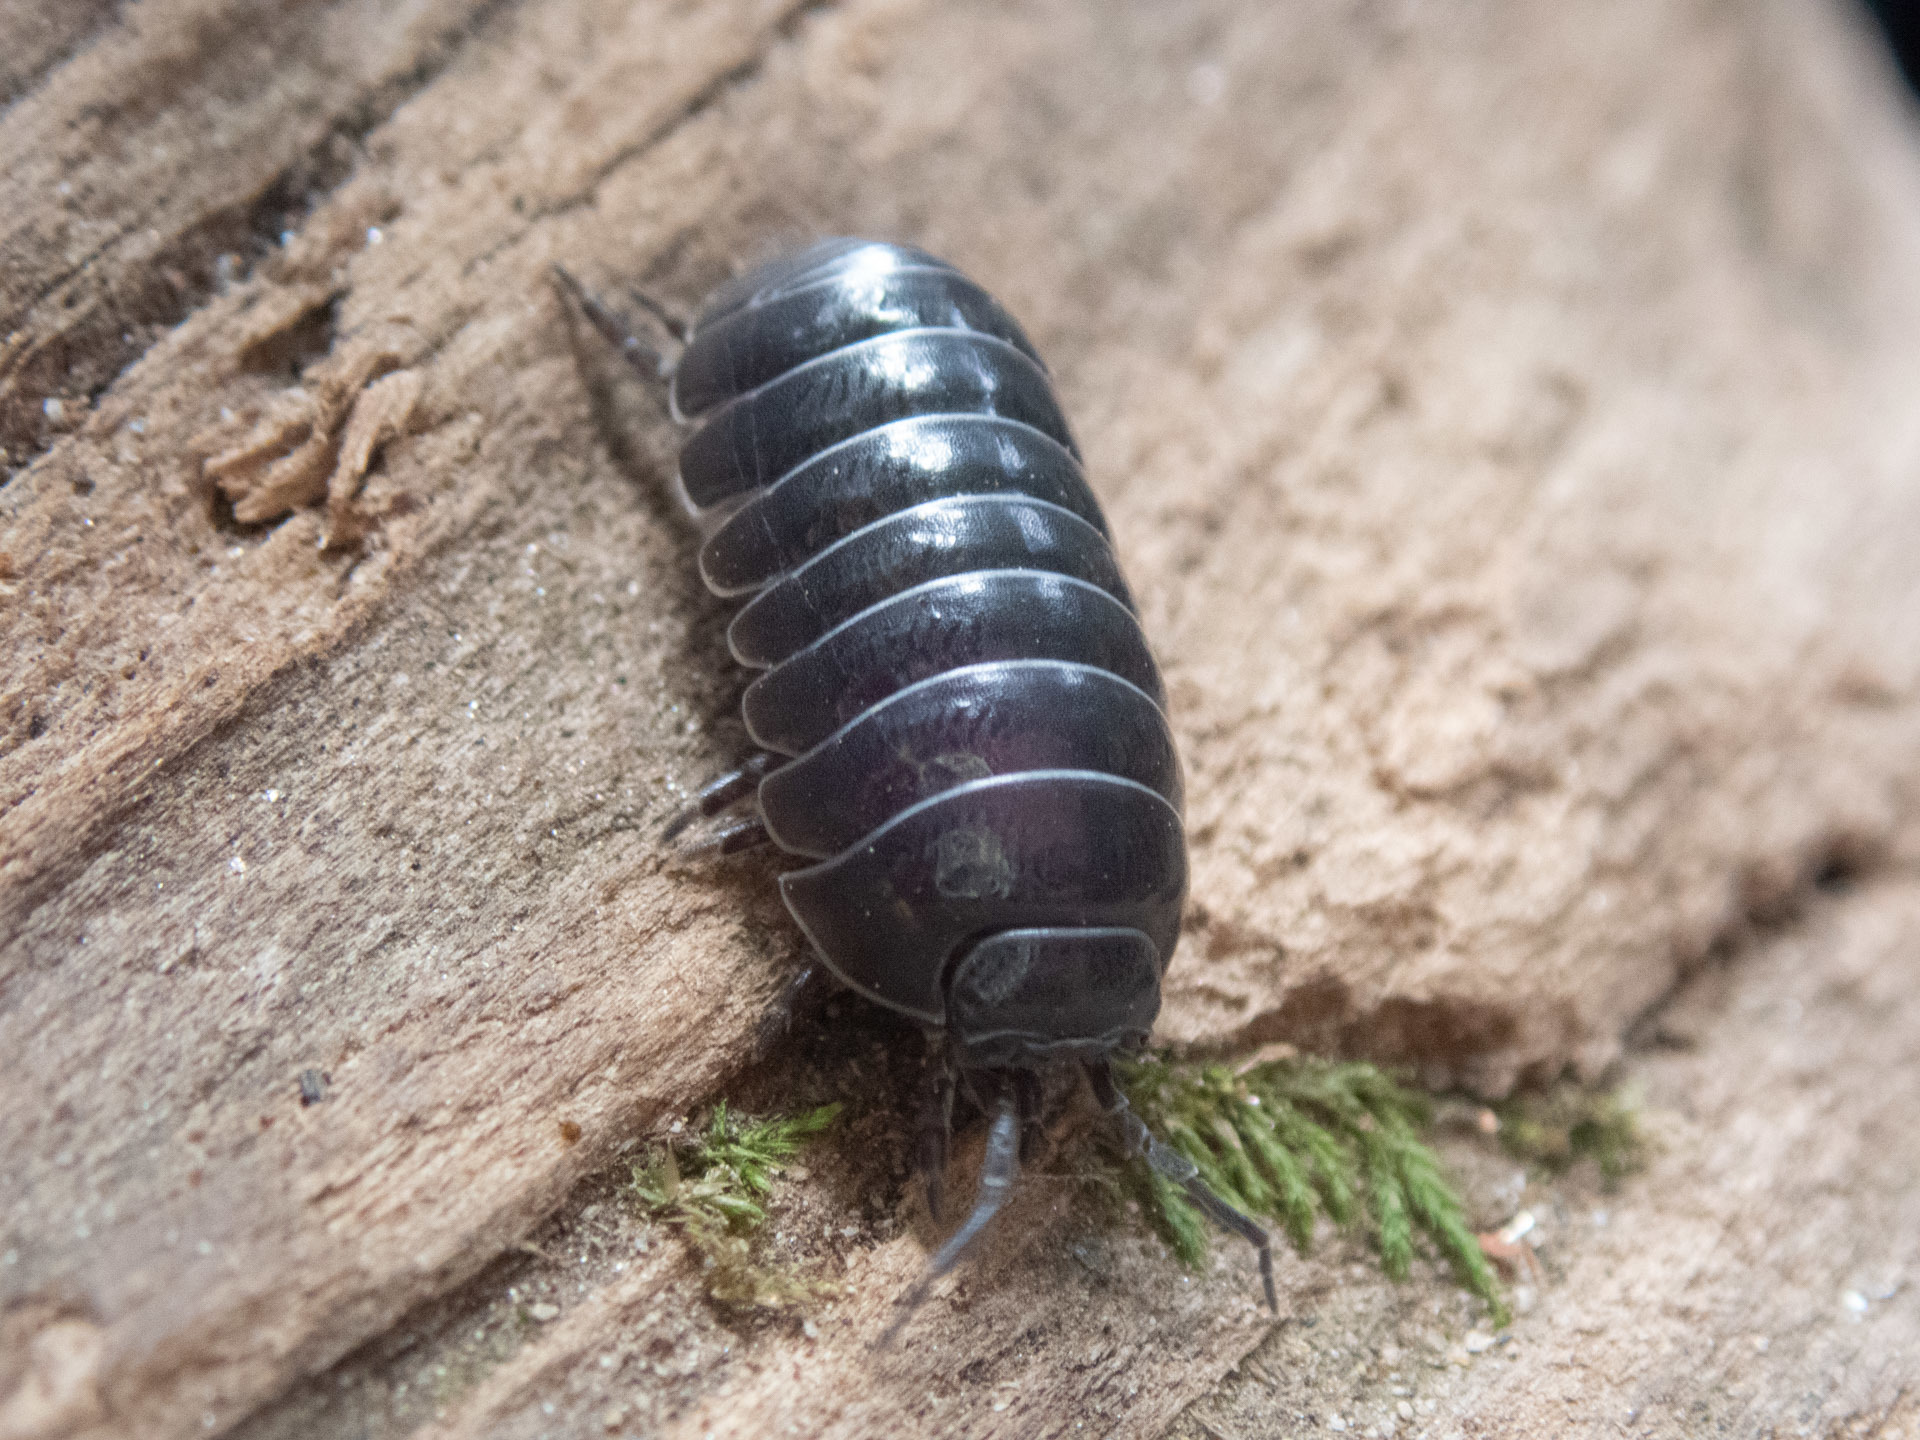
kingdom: Animalia
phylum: Arthropoda
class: Malacostraca
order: Isopoda
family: Armadillidiidae
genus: Armadillidium
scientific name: Armadillidium vulgare
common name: Common pill woodlouse
